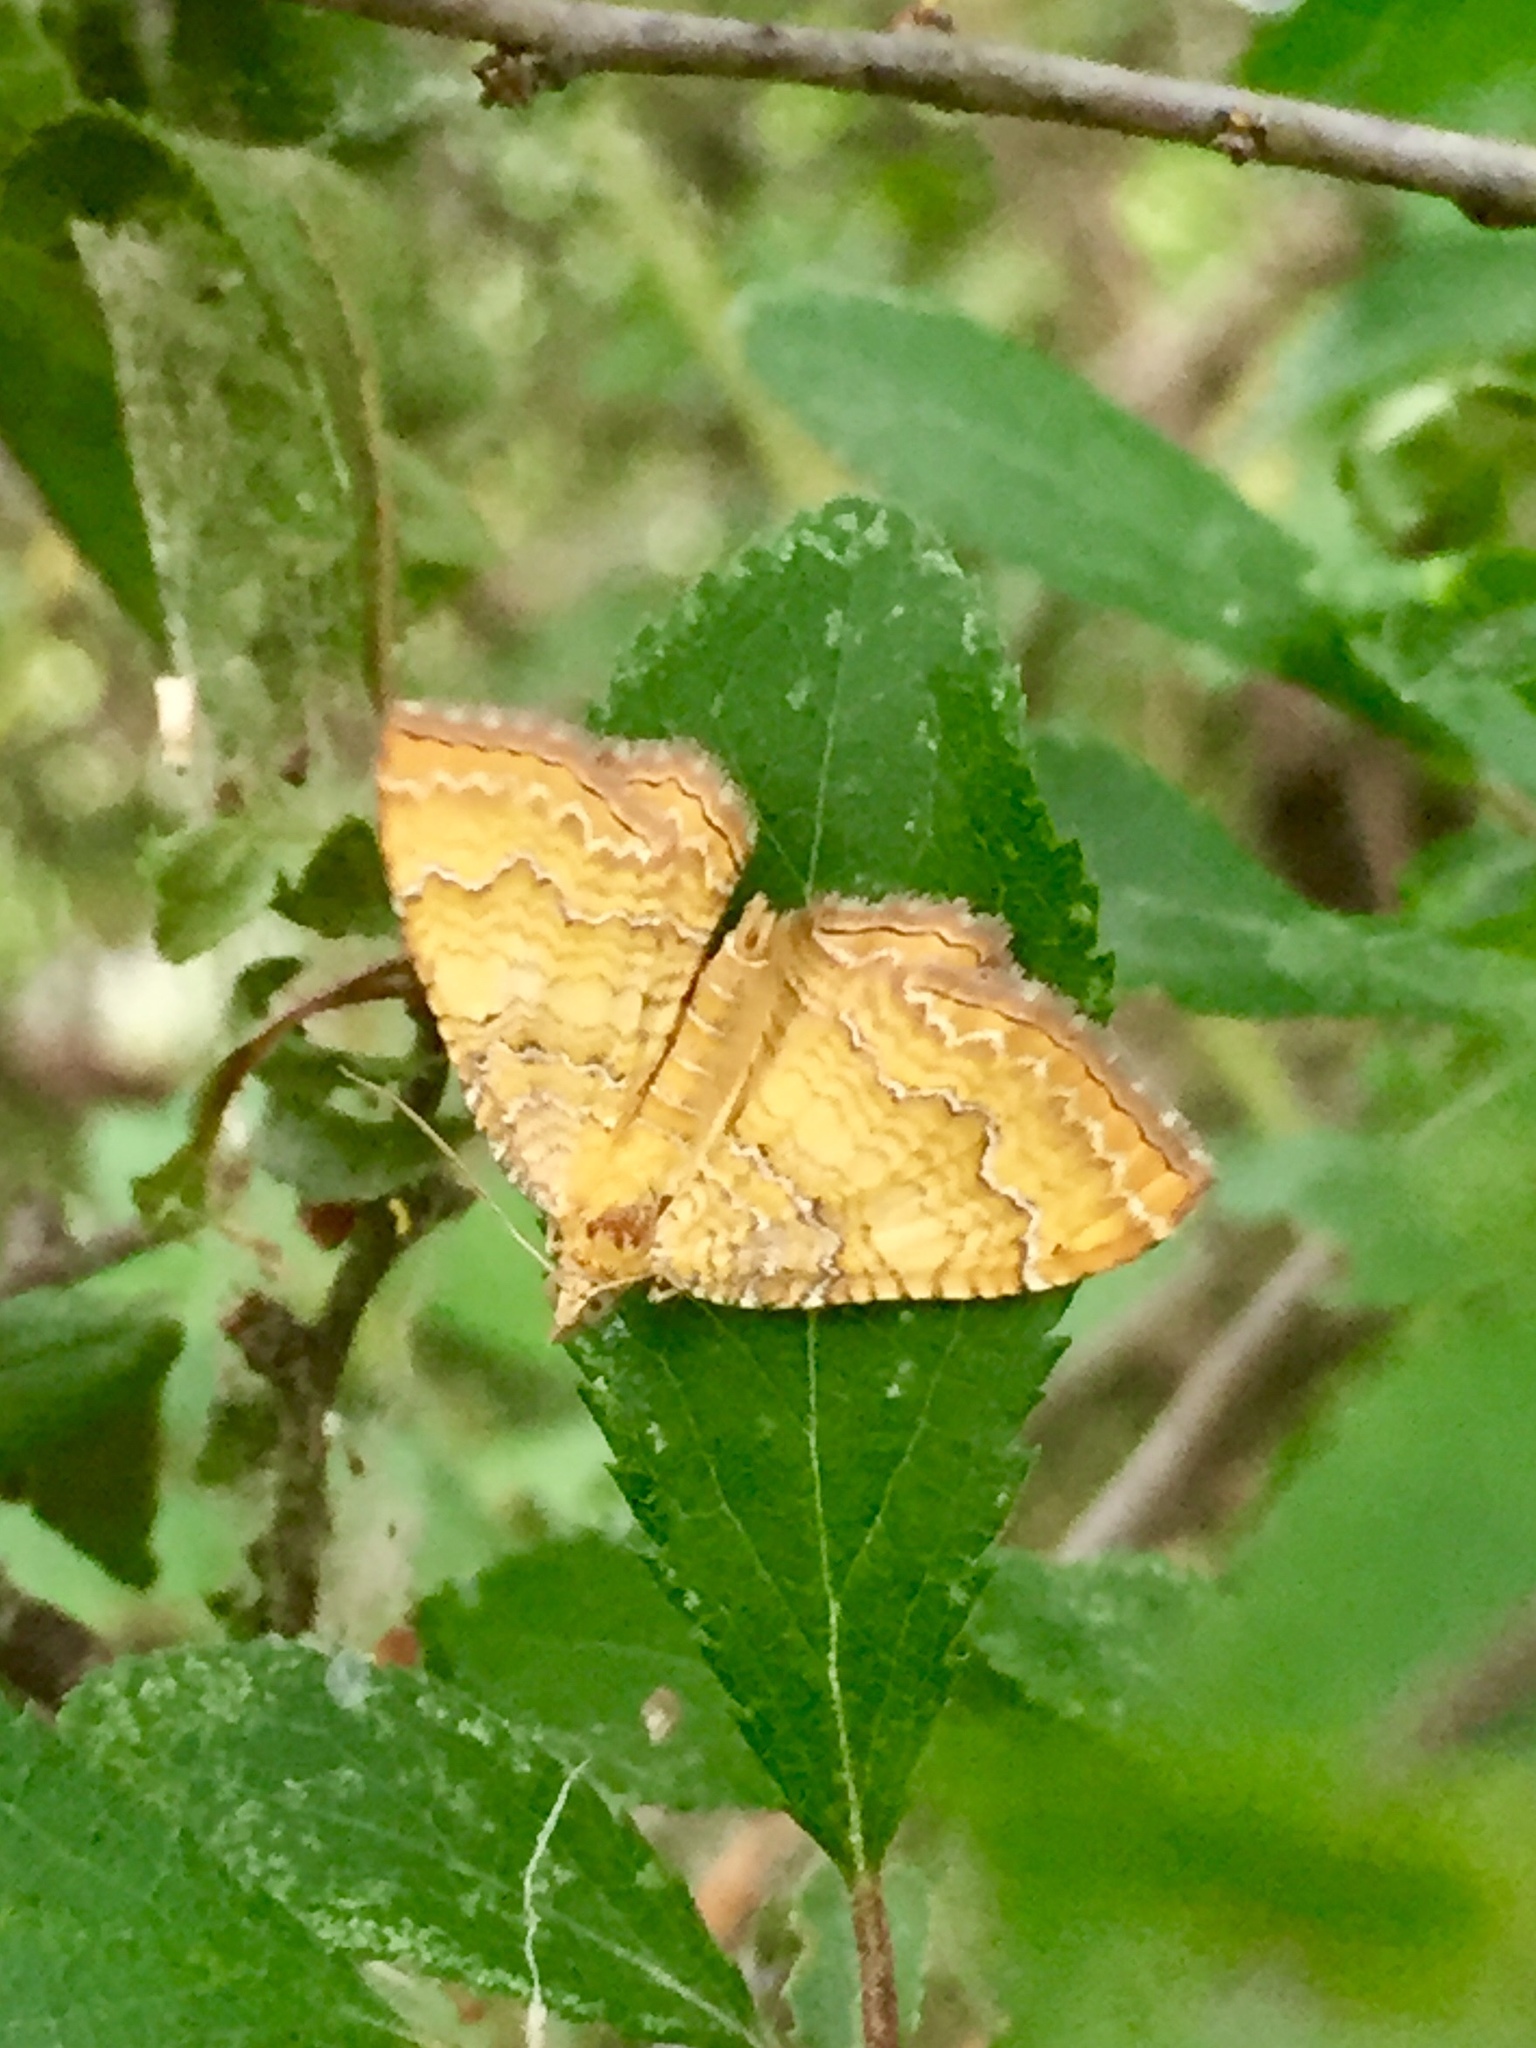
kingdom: Animalia
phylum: Arthropoda
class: Insecta
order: Lepidoptera
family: Geometridae
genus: Camptogramma
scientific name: Camptogramma bilineata
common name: Yellow shell
